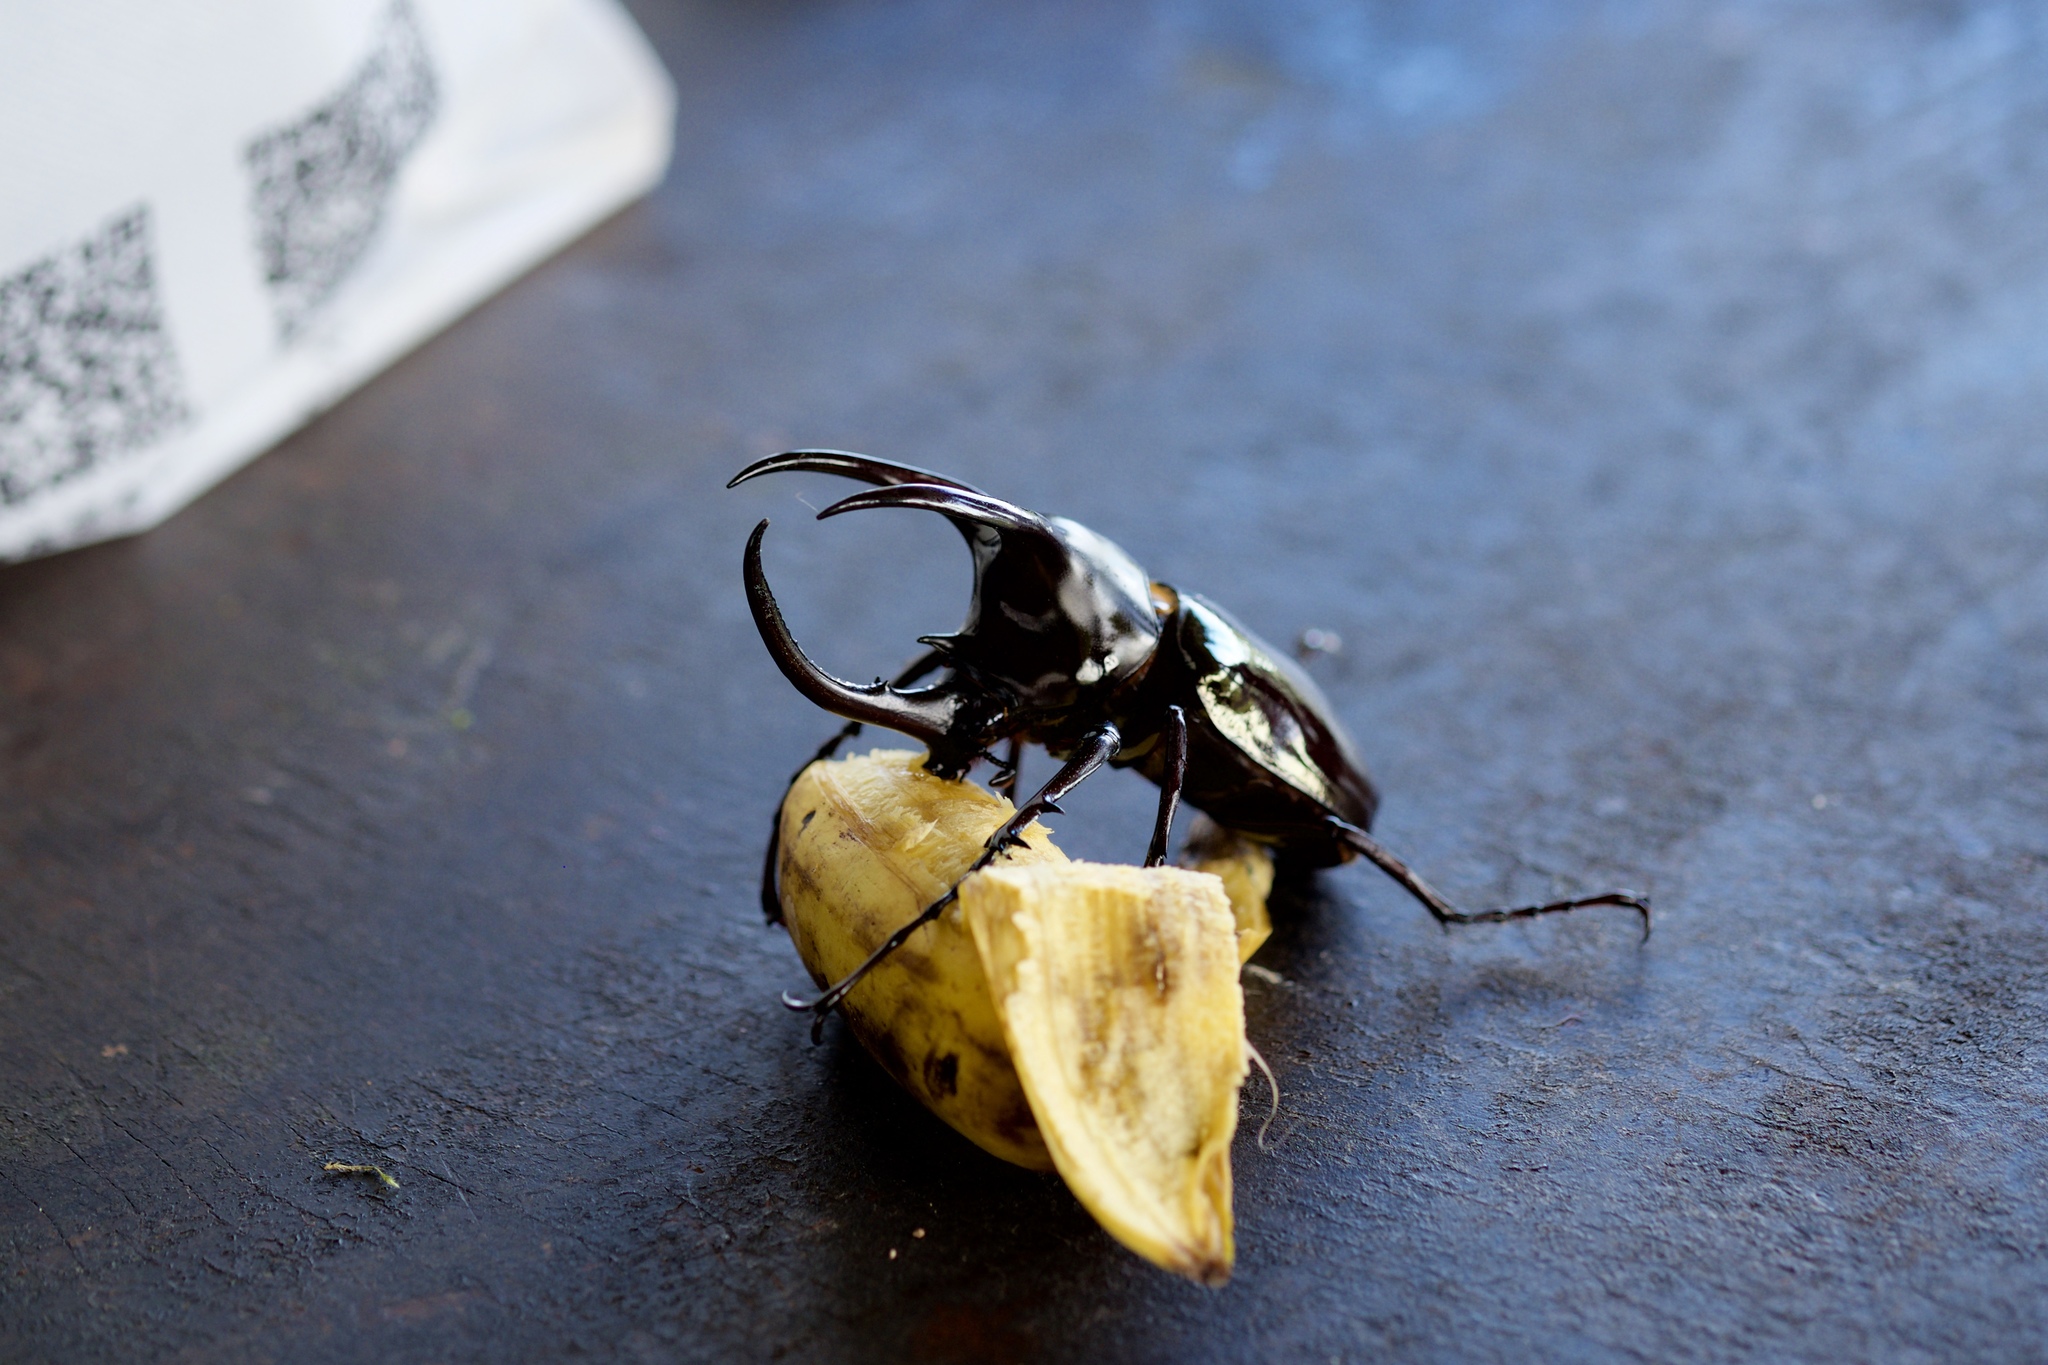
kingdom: Animalia
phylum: Arthropoda
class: Insecta
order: Coleoptera
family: Scarabaeidae
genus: Chalcosoma
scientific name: Chalcosoma moellenkampi
